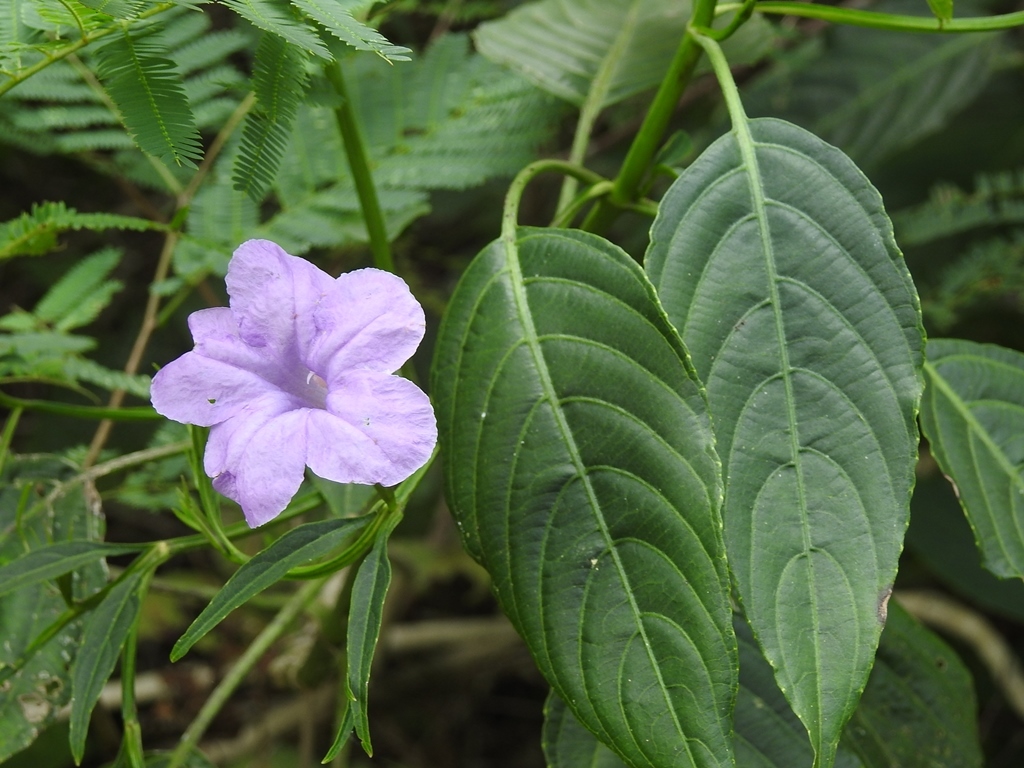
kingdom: Plantae
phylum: Tracheophyta
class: Magnoliopsida
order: Lamiales
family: Acanthaceae
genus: Ruellia
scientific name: Ruellia breedlovei
